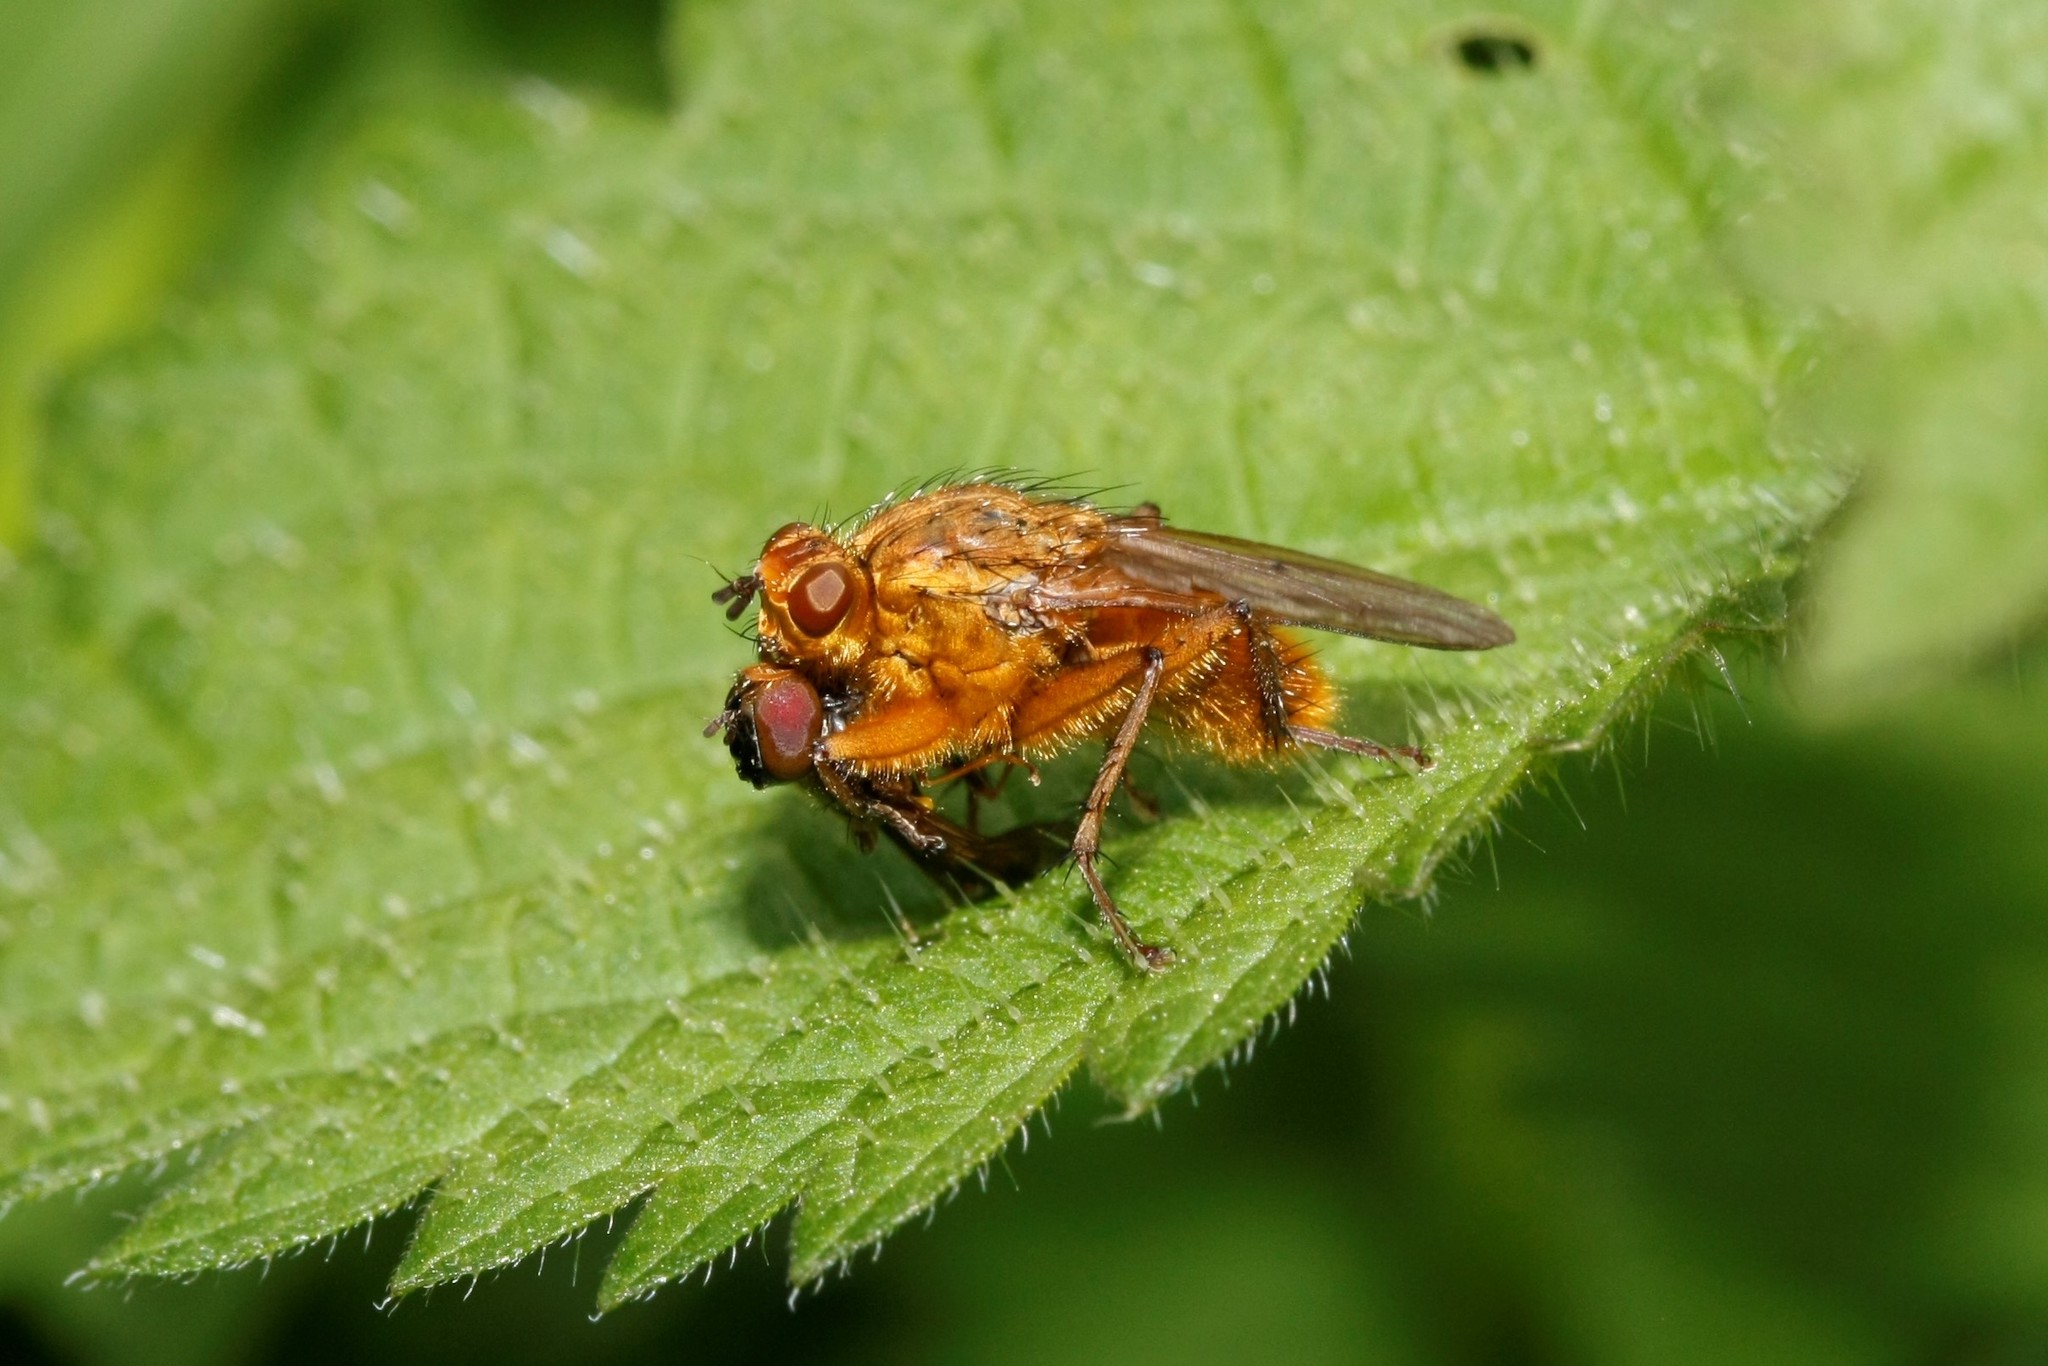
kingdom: Animalia
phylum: Arthropoda
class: Insecta
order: Diptera
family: Scathophagidae
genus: Scathophaga
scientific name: Scathophaga stercoraria
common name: Yellow dung fly
